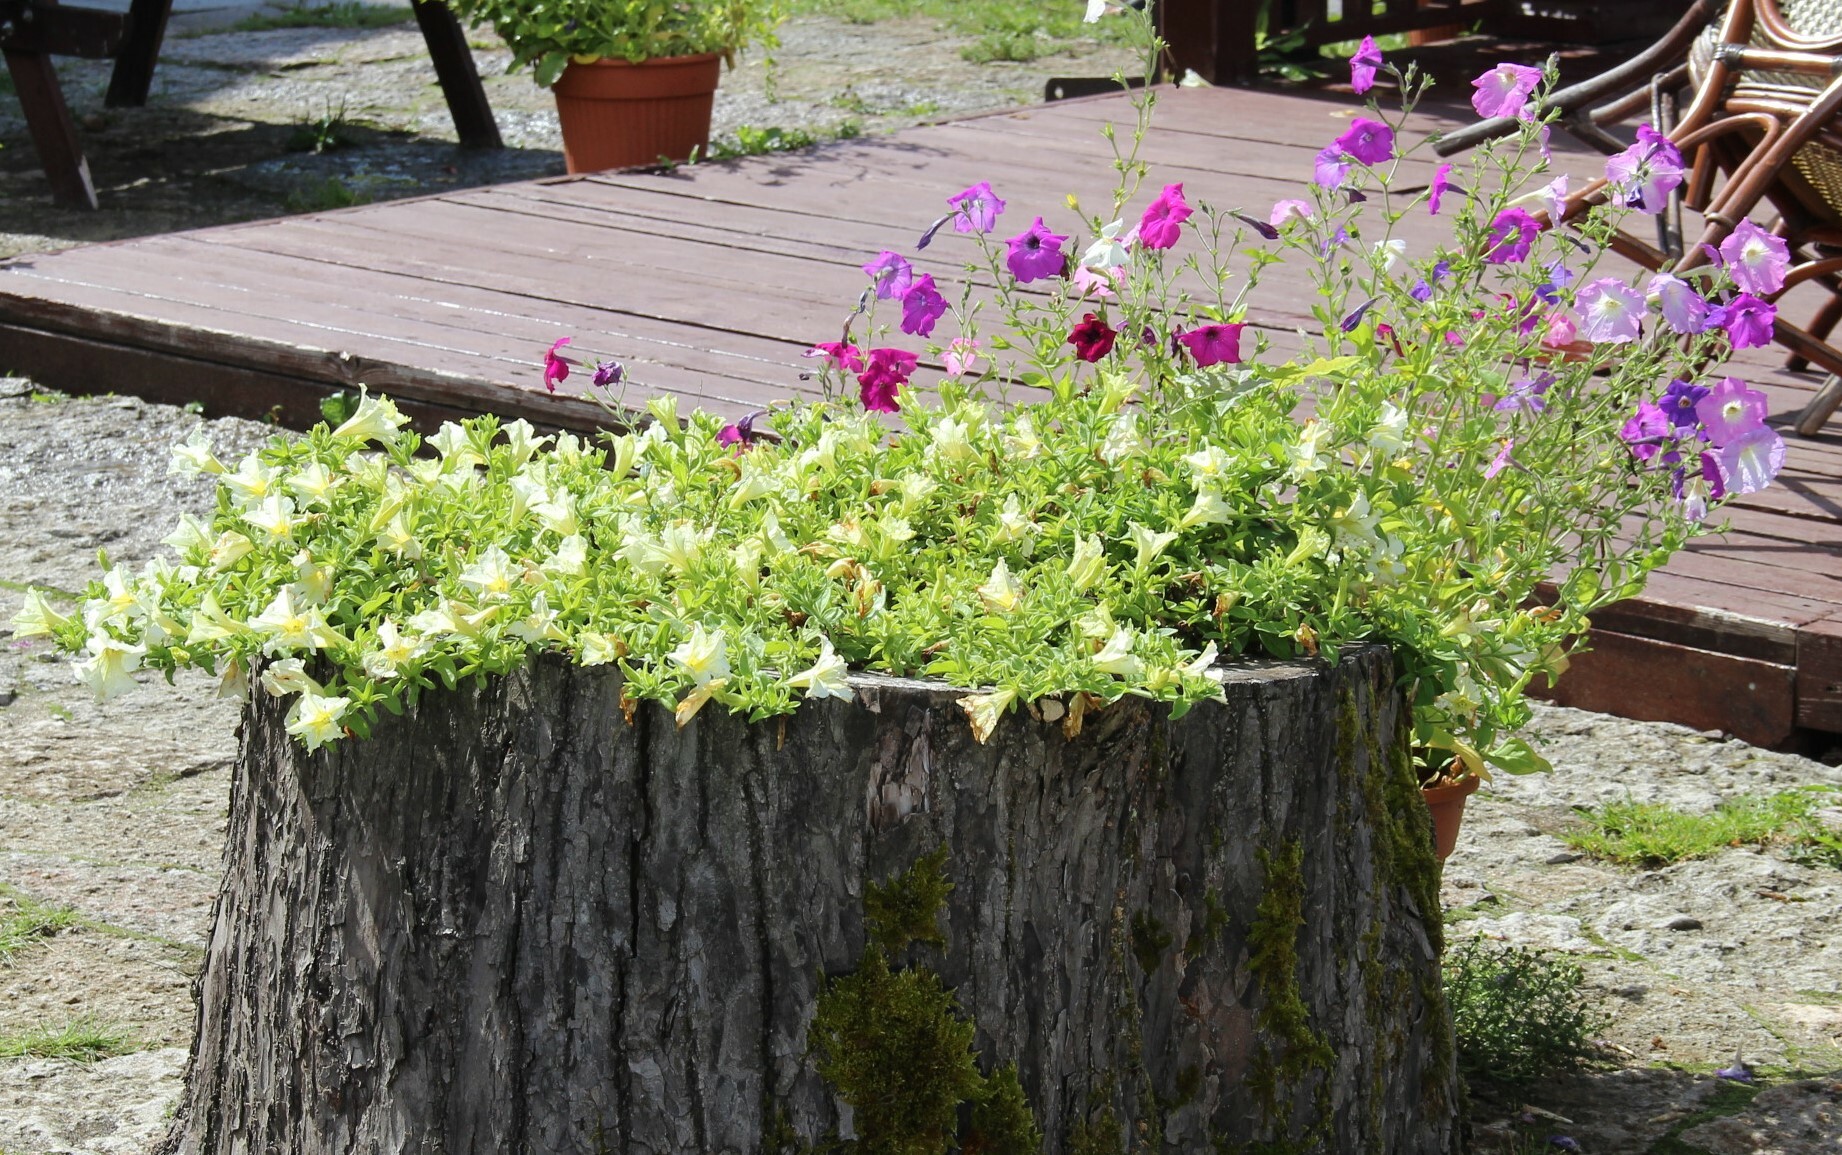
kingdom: Plantae
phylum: Tracheophyta
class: Magnoliopsida
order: Solanales
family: Solanaceae
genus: Petunia
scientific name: Petunia atkinsiana
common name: Petunia
